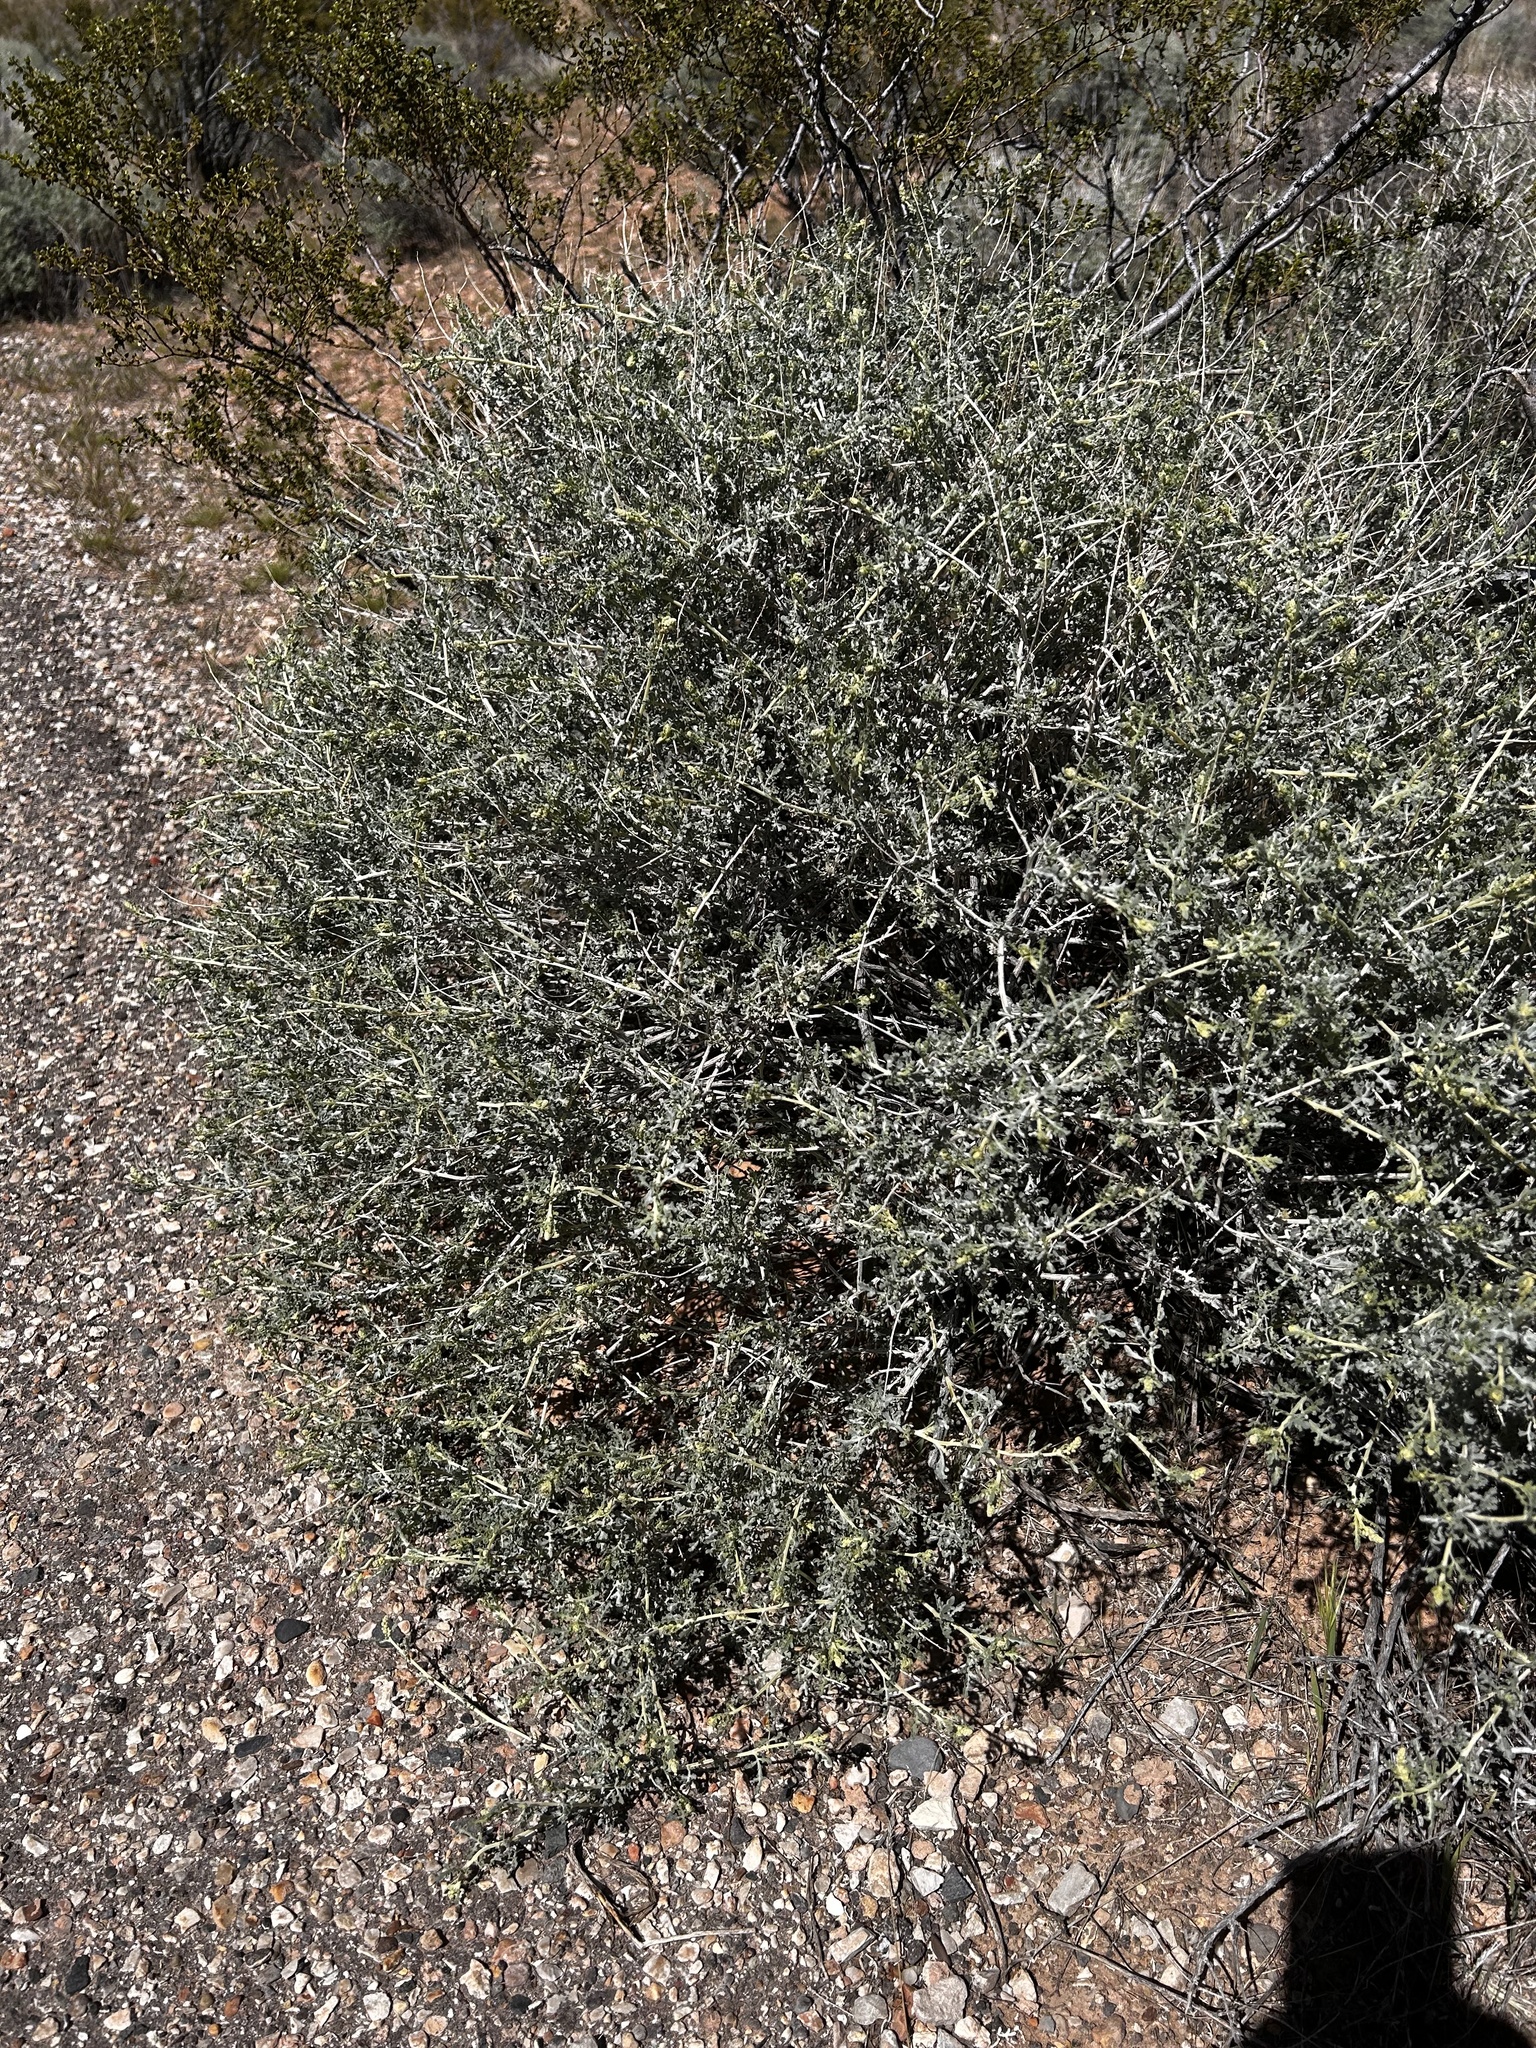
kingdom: Plantae
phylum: Tracheophyta
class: Magnoliopsida
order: Asterales
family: Asteraceae
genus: Ambrosia
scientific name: Ambrosia dumosa
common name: Bur-sage
